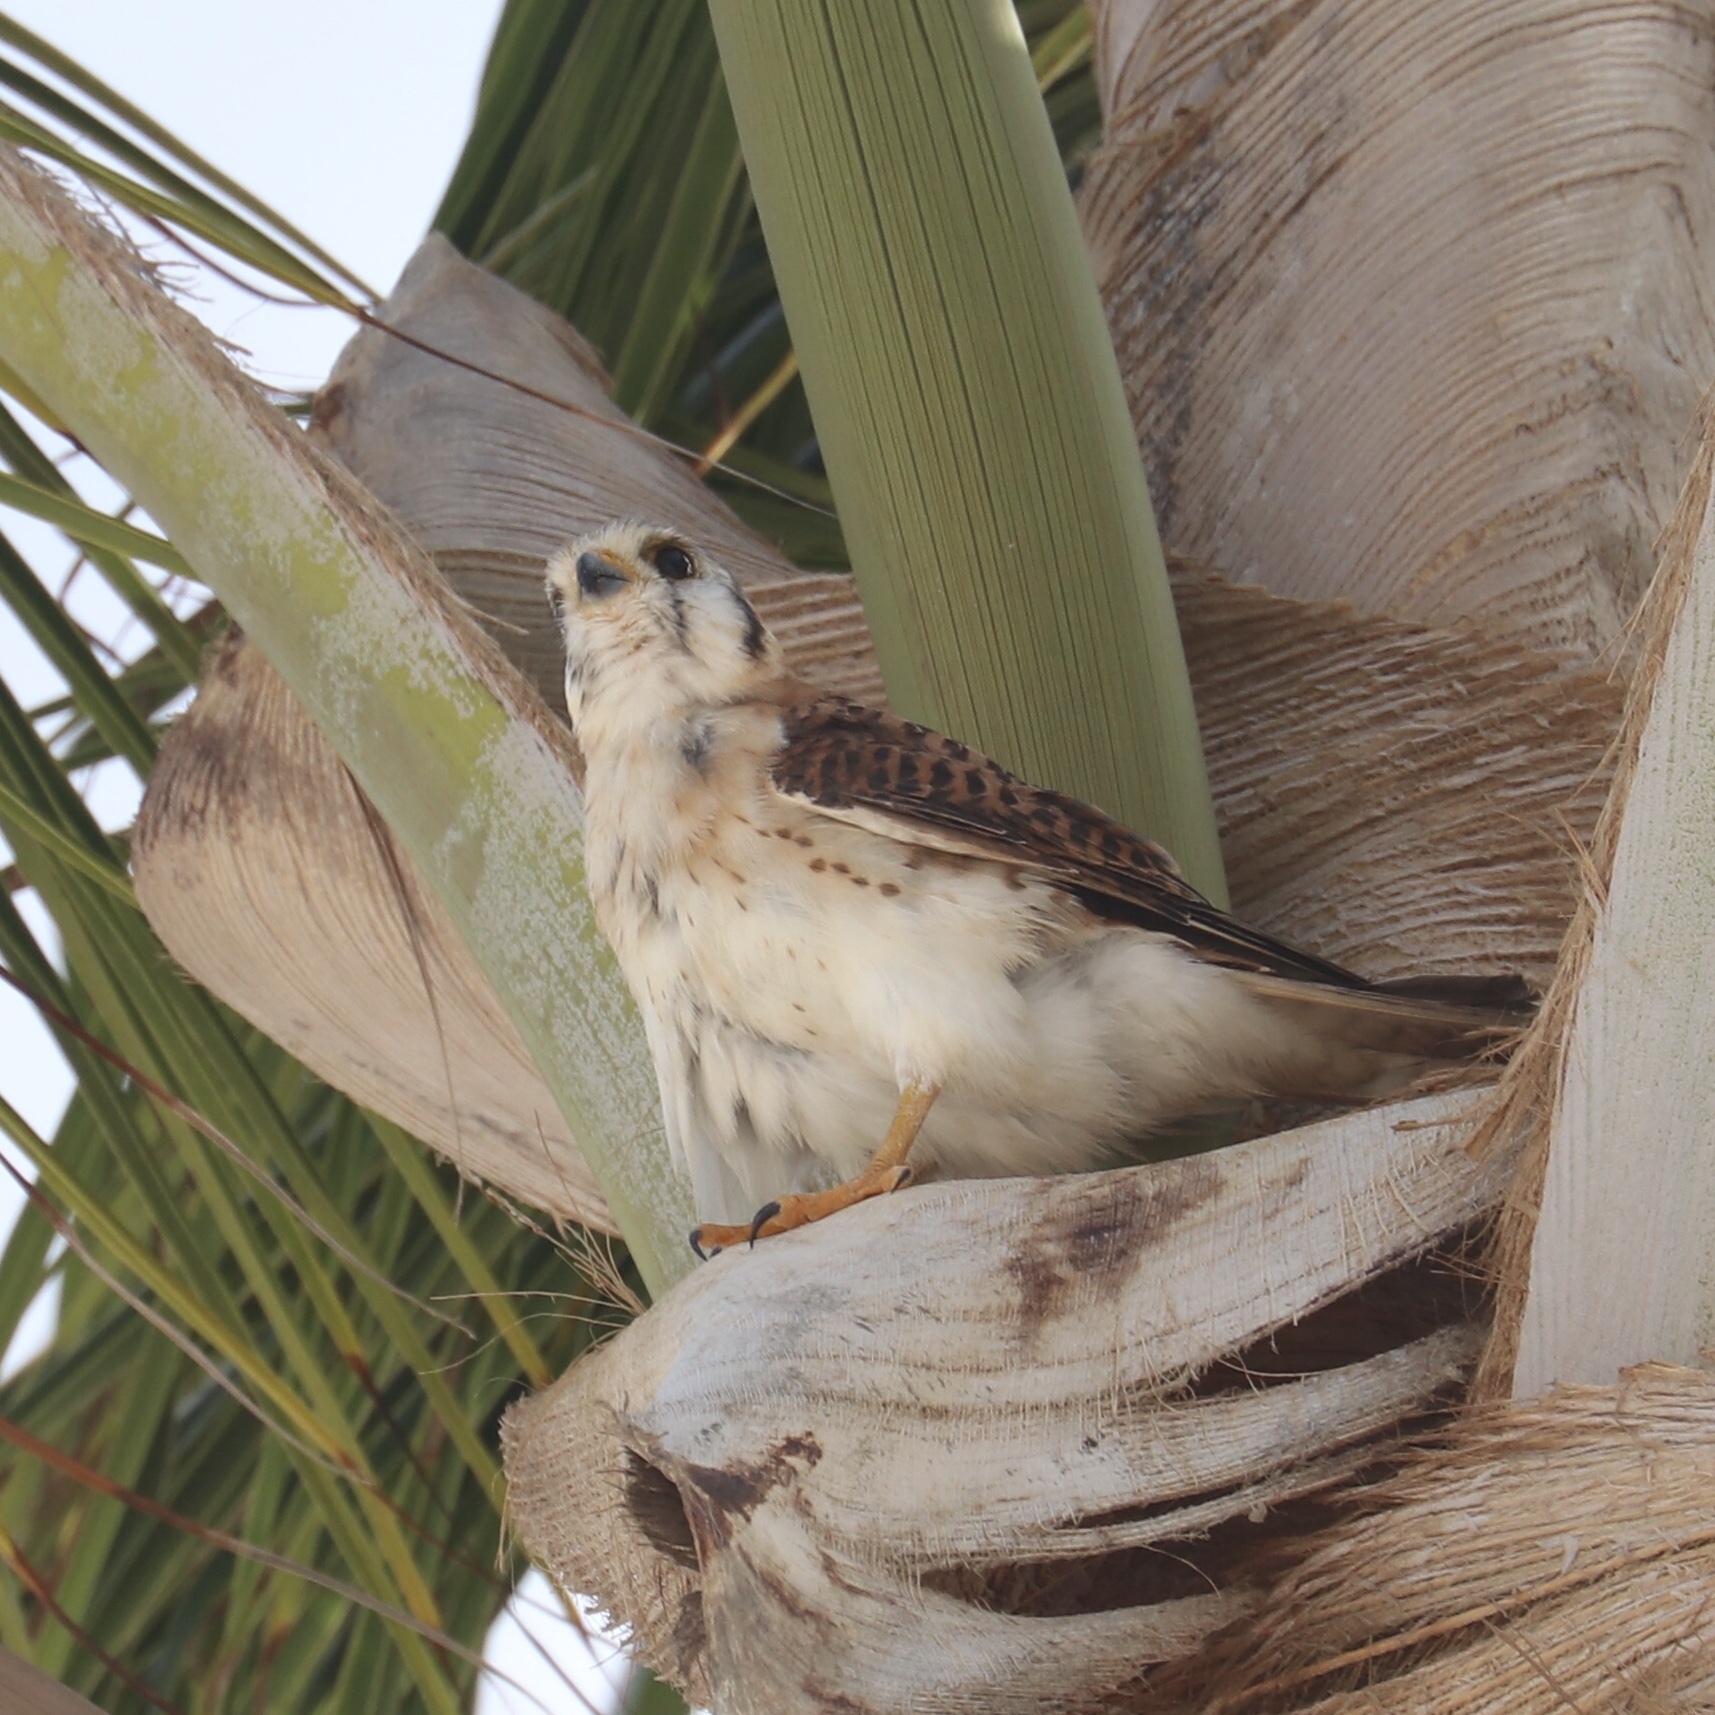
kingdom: Animalia
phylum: Chordata
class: Aves
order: Falconiformes
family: Falconidae
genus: Falco
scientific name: Falco sparverius
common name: American kestrel
